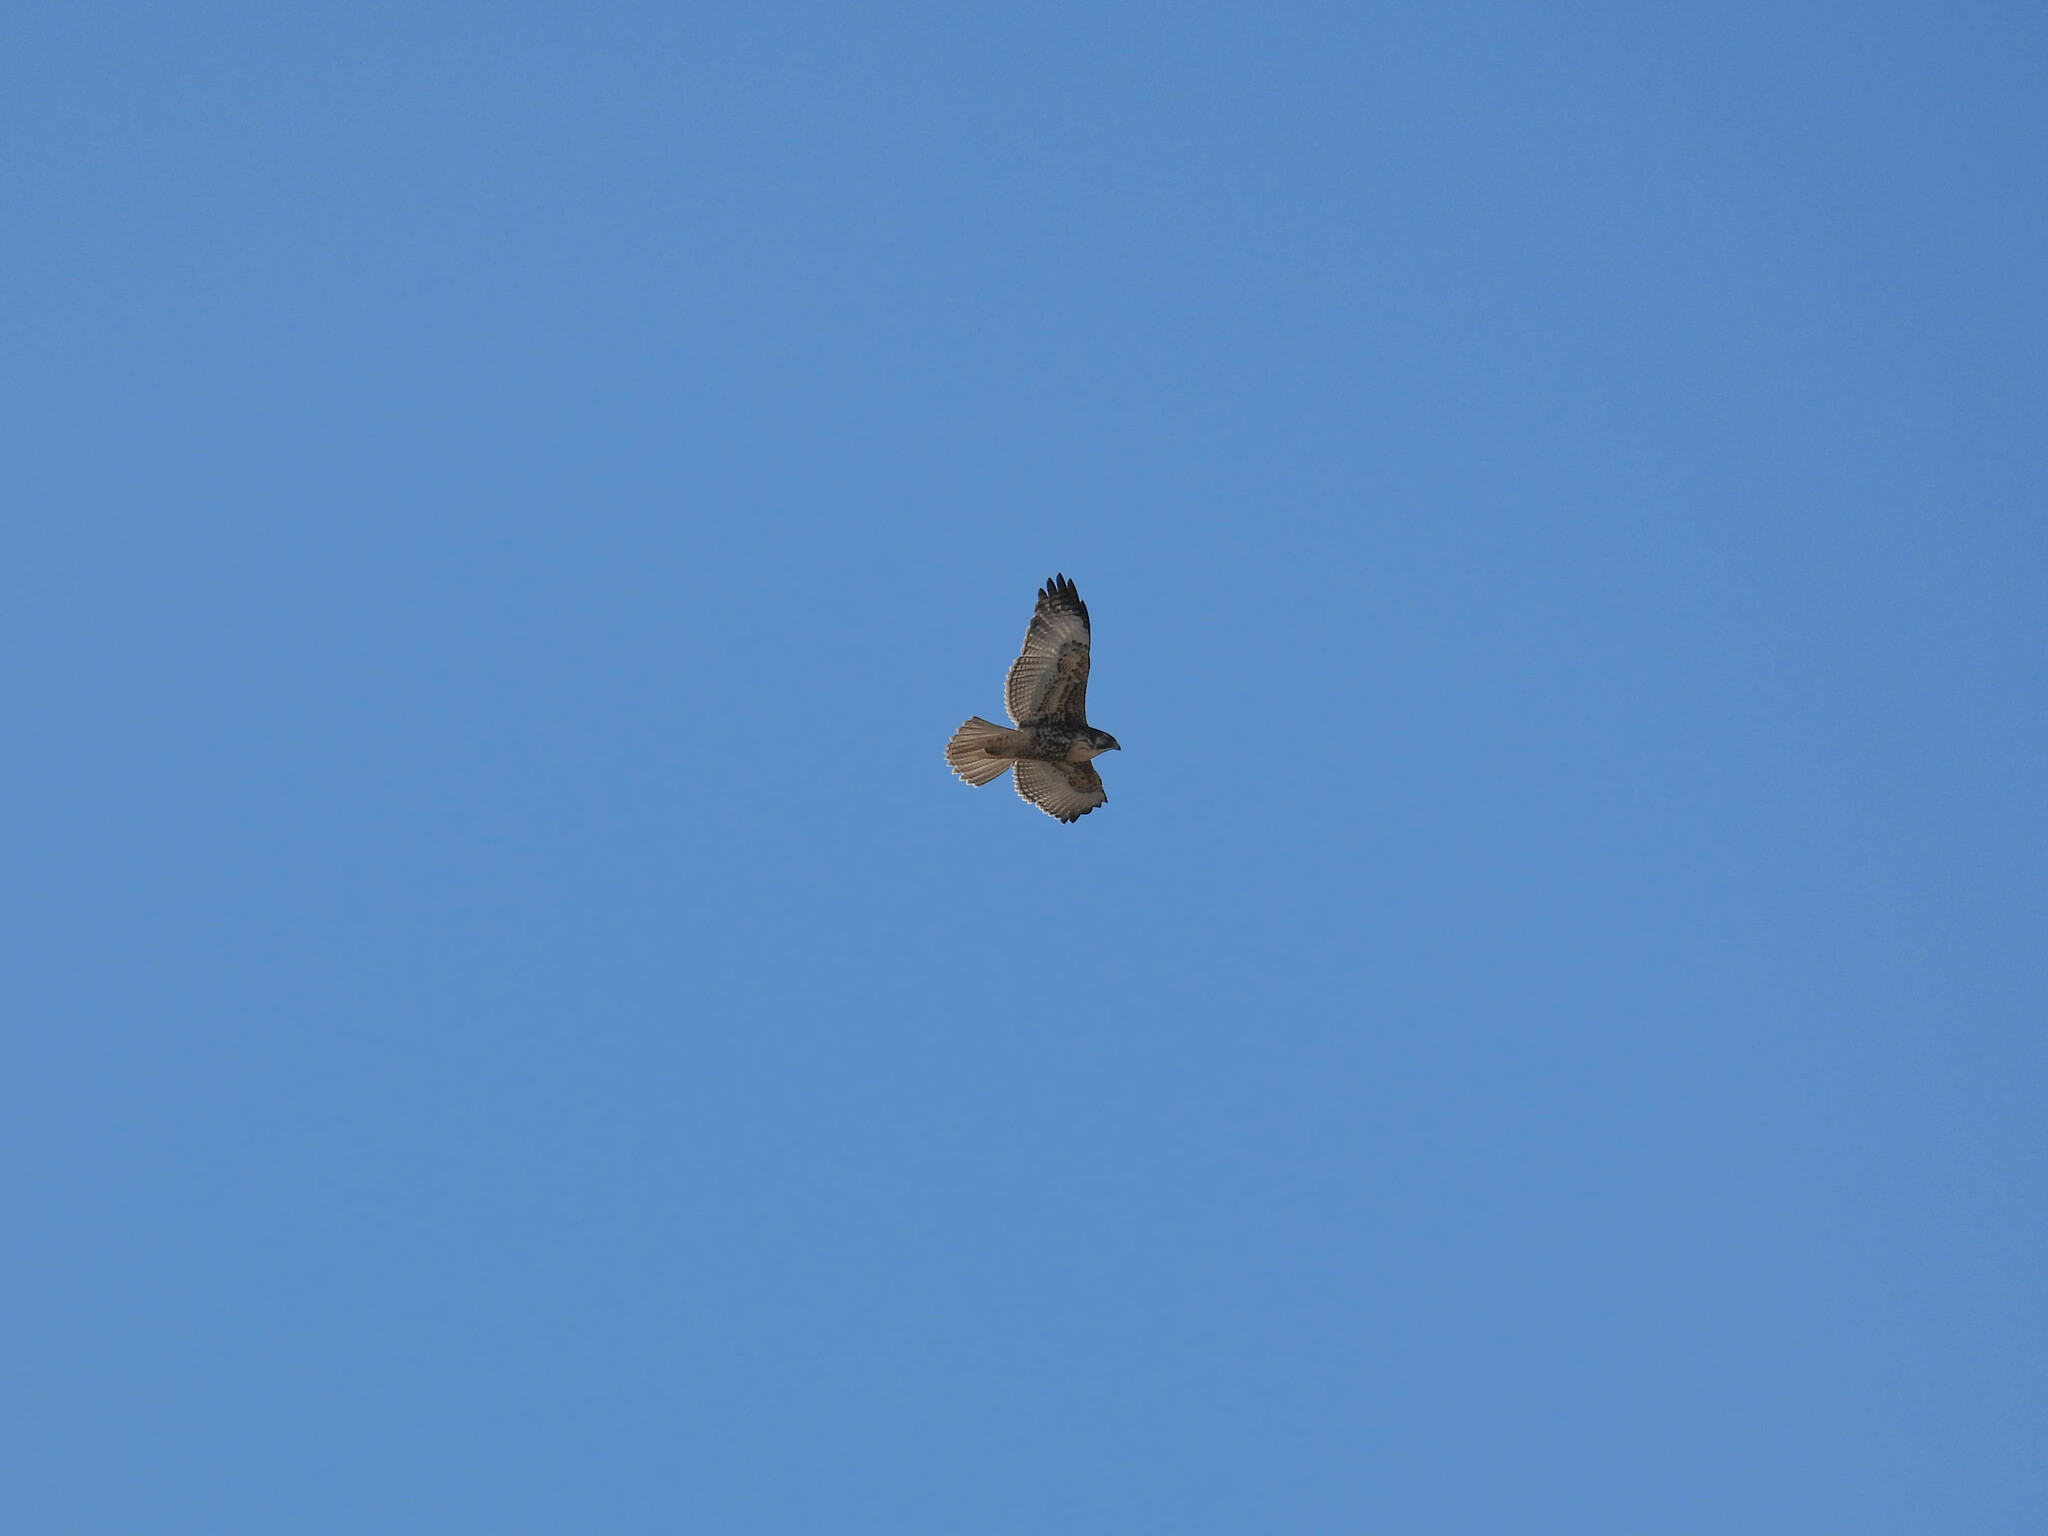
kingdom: Animalia
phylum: Chordata
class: Aves
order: Accipitriformes
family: Accipitridae
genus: Buteo
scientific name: Buteo polyosoma
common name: Variable hawk
